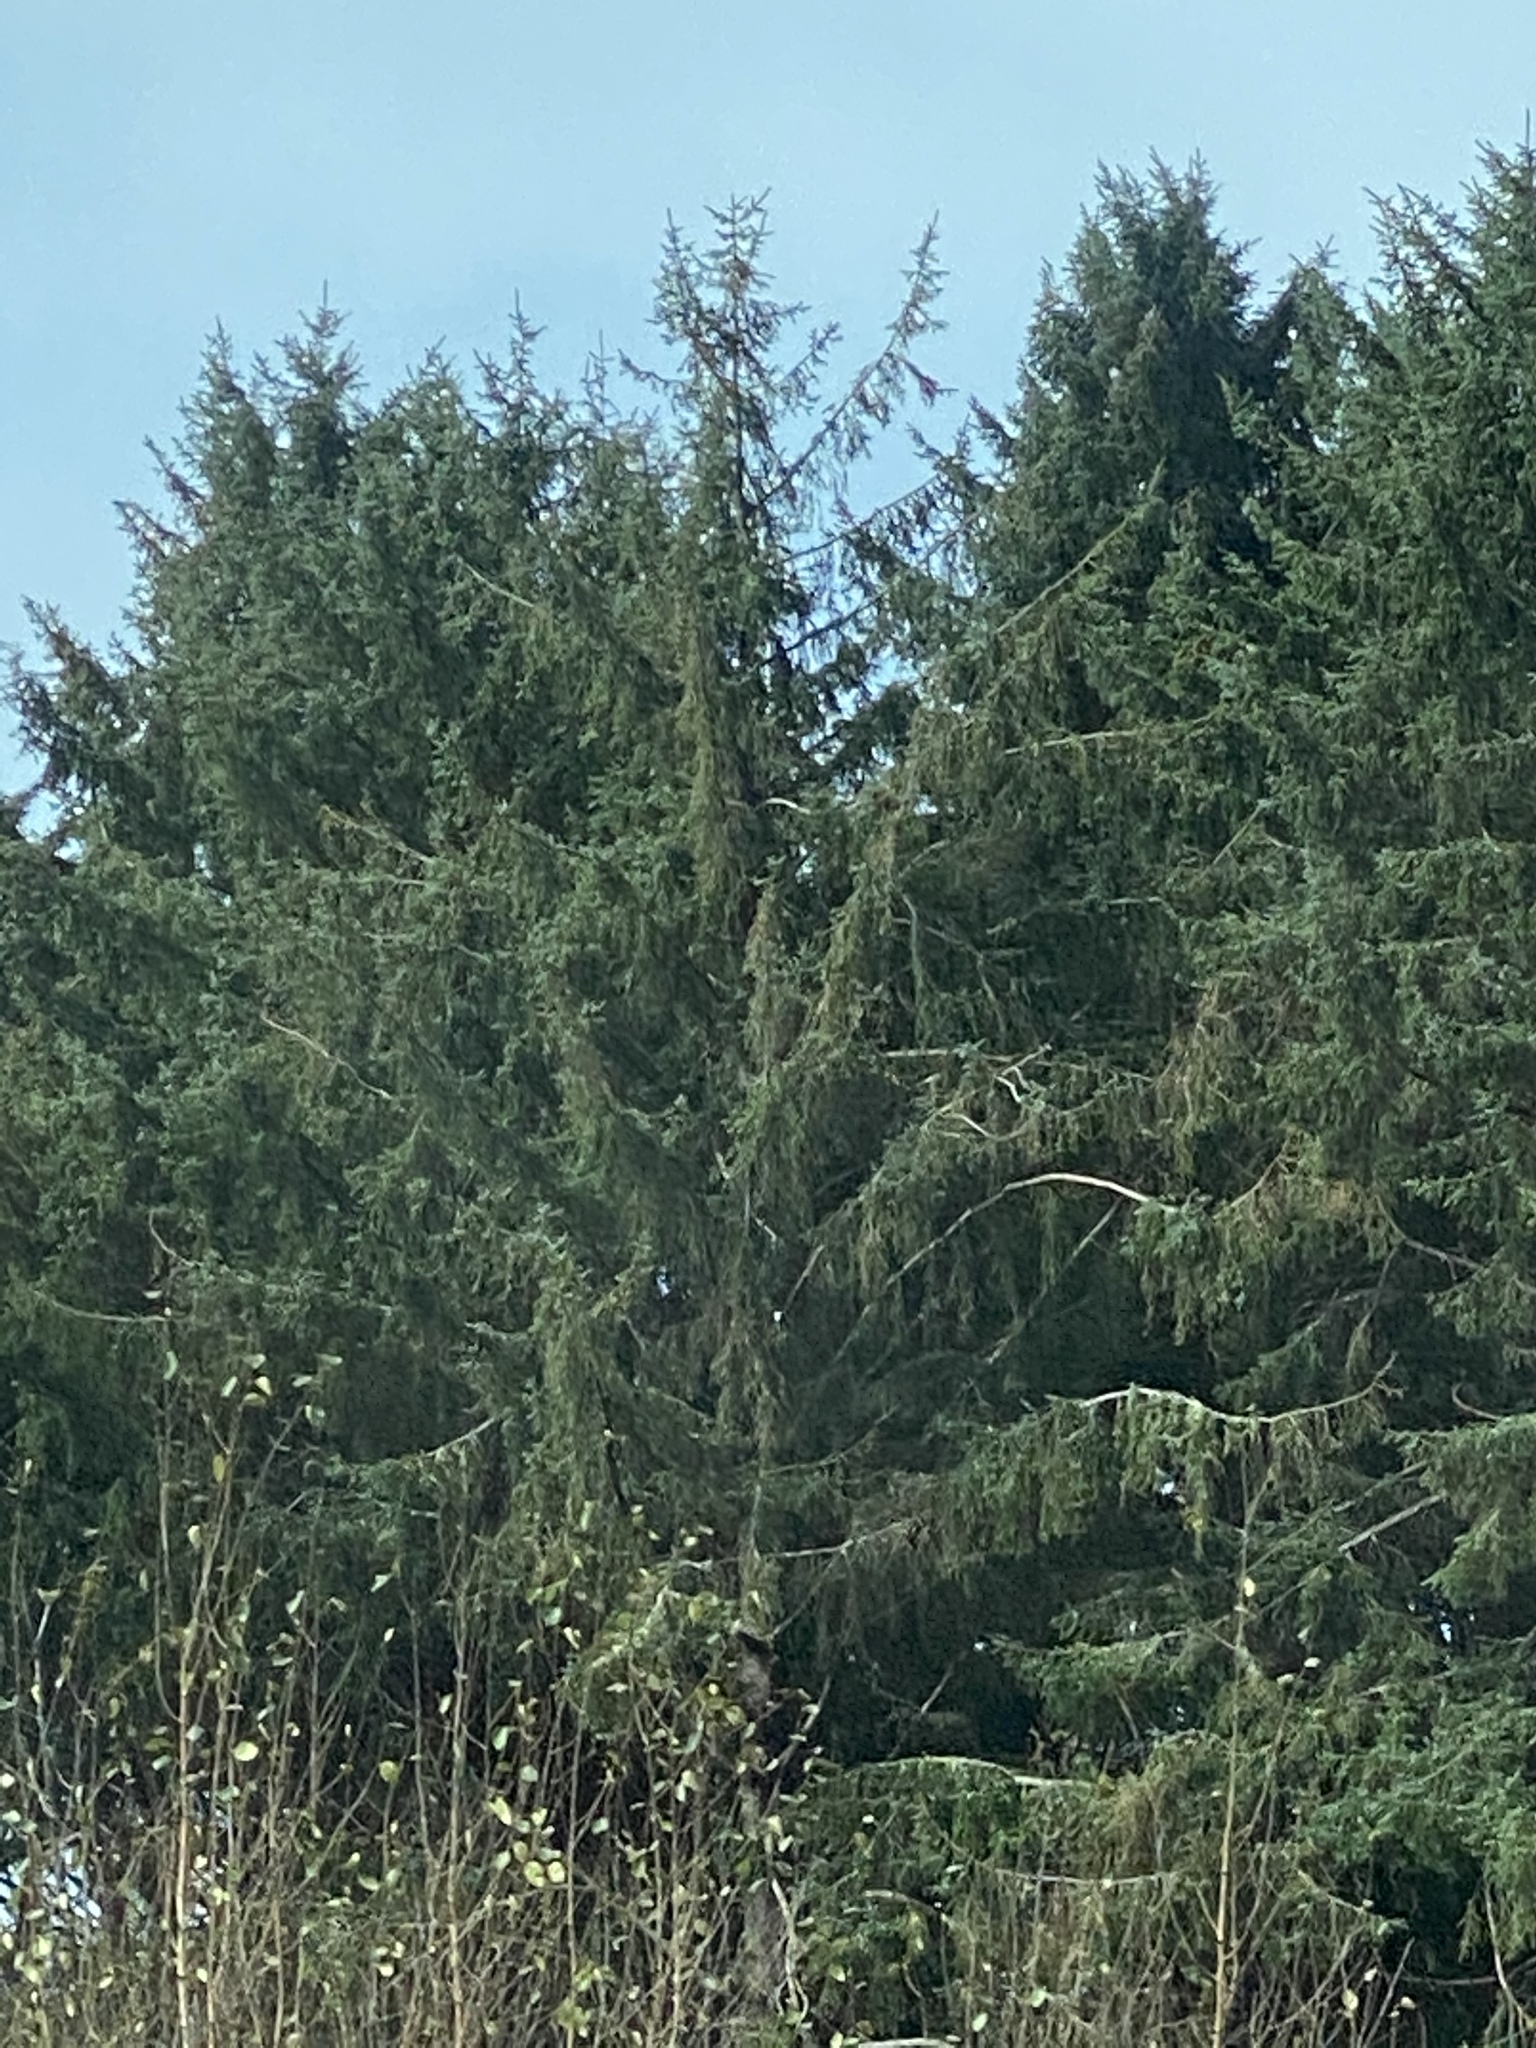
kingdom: Plantae
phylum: Tracheophyta
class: Pinopsida
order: Pinales
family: Pinaceae
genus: Pseudotsuga
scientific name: Pseudotsuga menziesii
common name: Douglas fir
